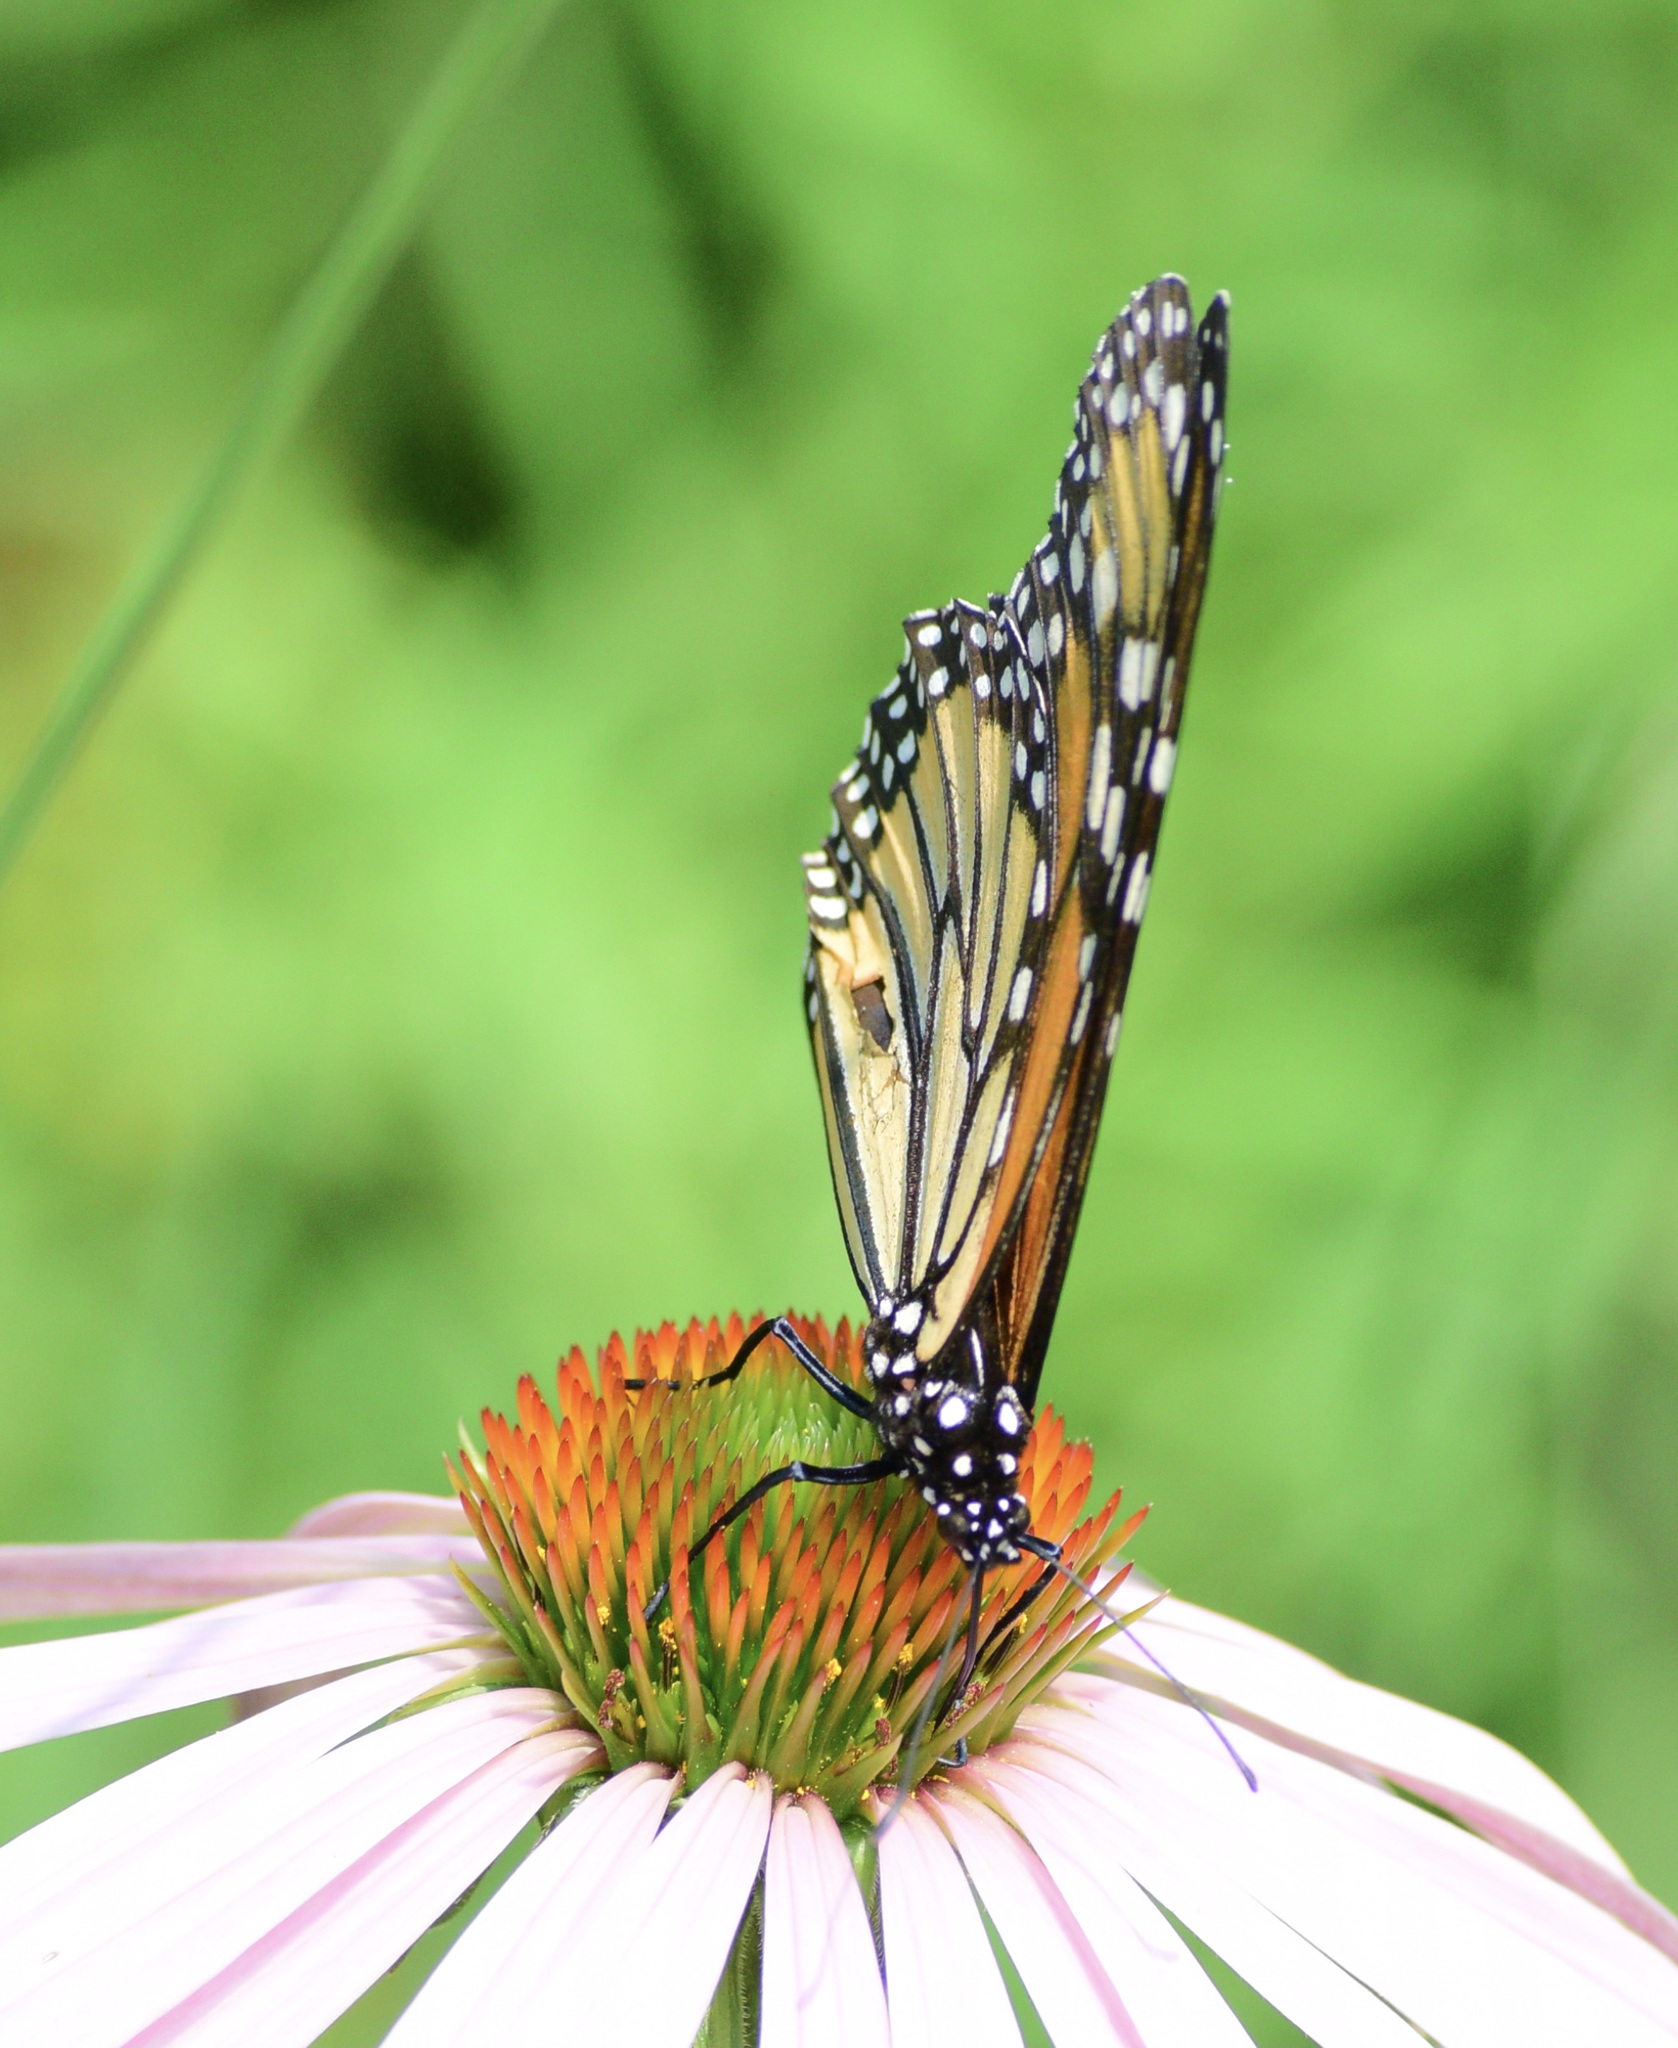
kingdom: Animalia
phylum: Arthropoda
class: Insecta
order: Lepidoptera
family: Nymphalidae
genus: Danaus
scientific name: Danaus plexippus
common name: Monarch
